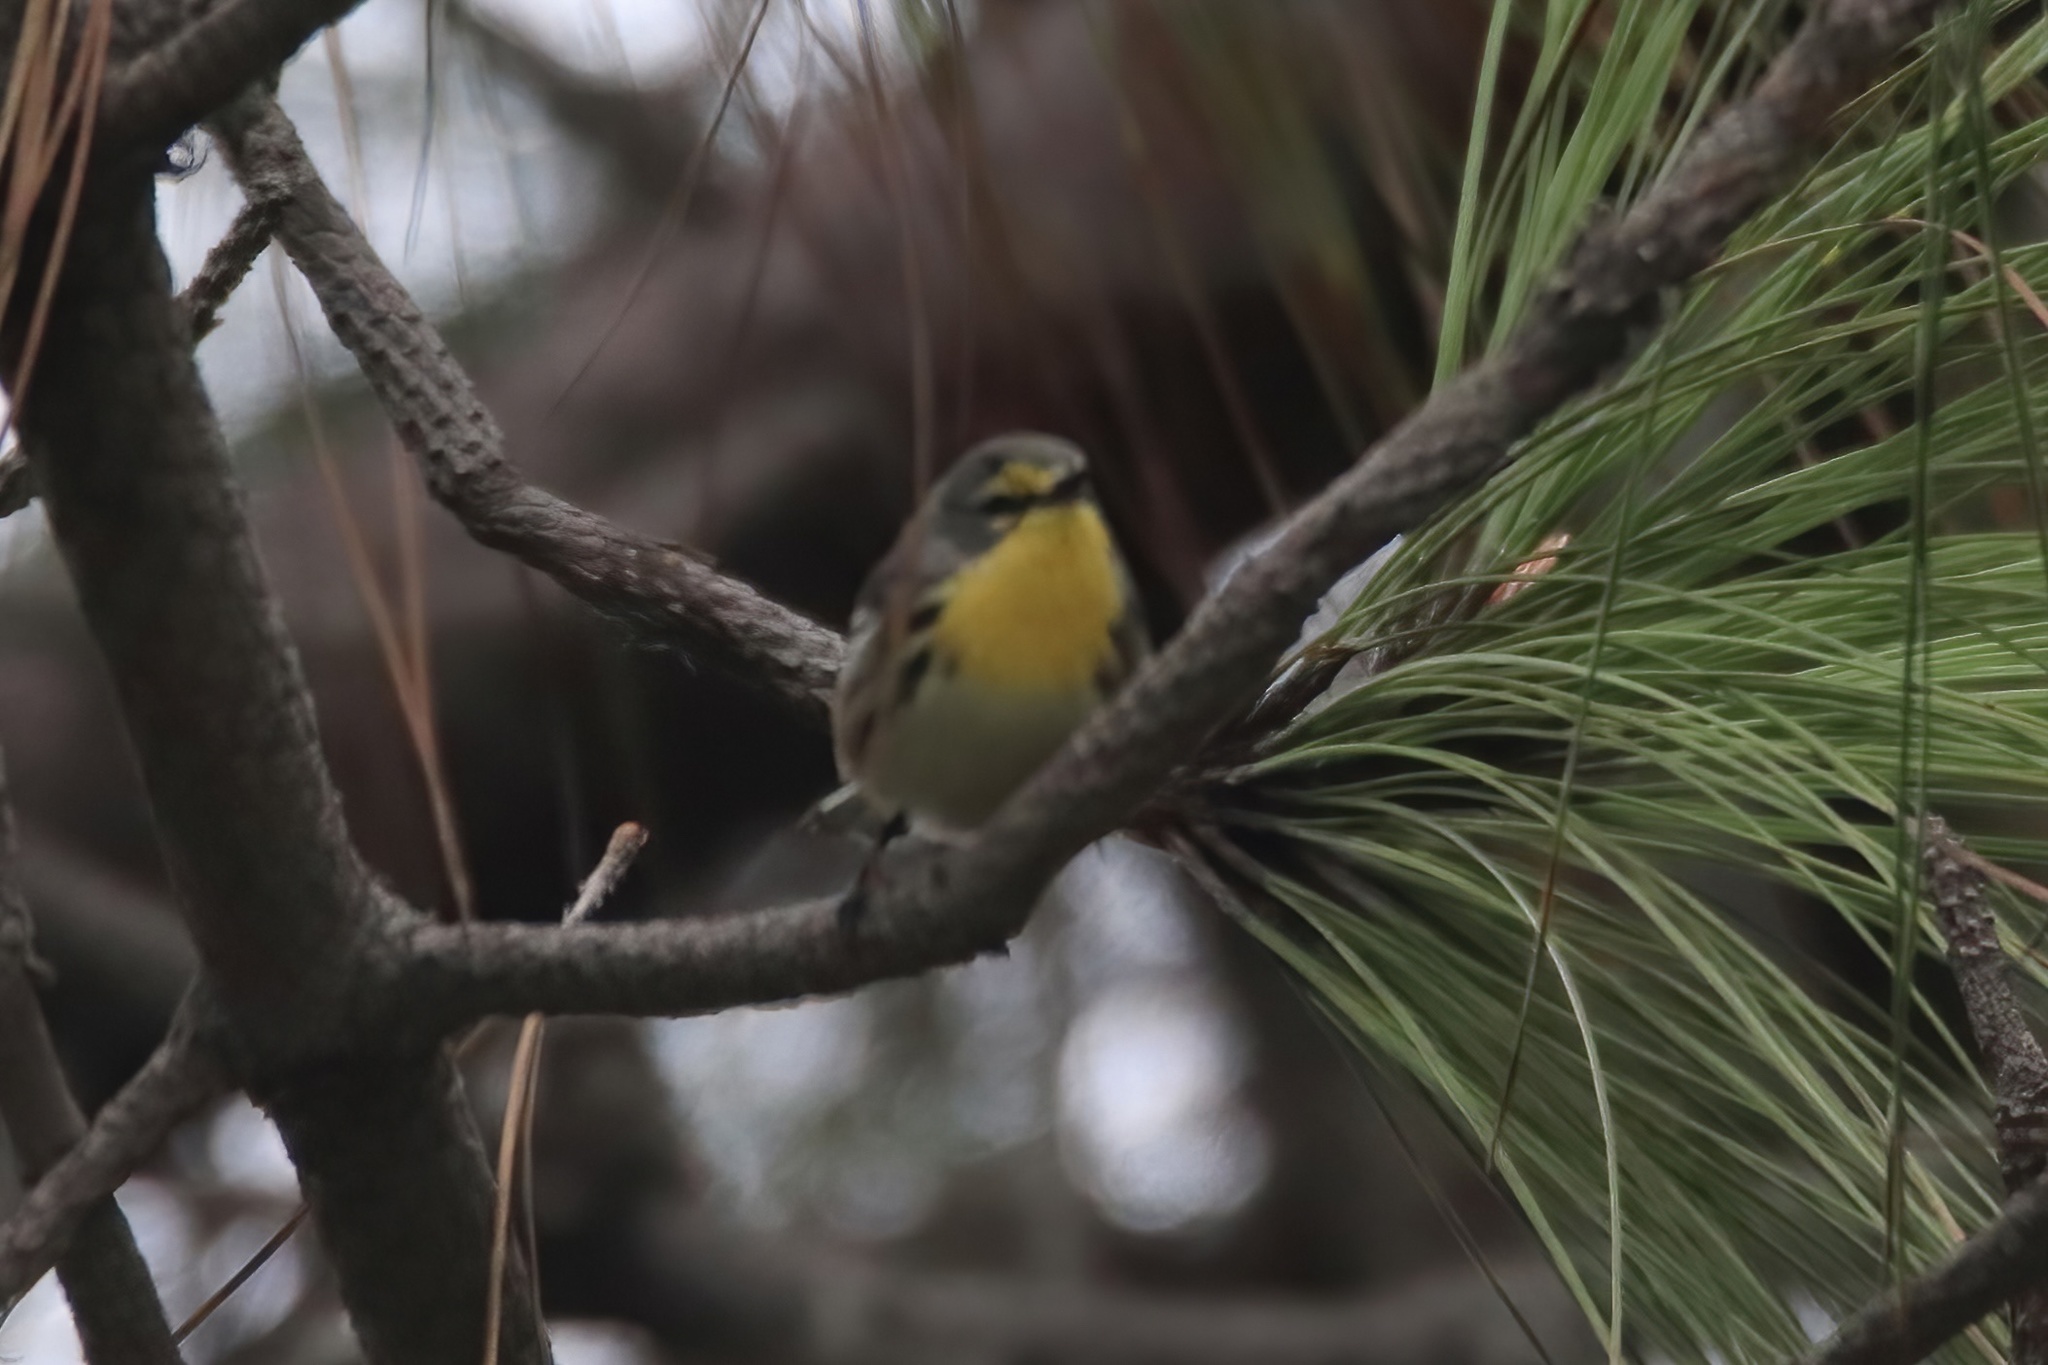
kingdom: Animalia
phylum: Chordata
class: Aves
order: Passeriformes
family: Parulidae
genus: Setophaga
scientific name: Setophaga graciae
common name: Grace's warbler
